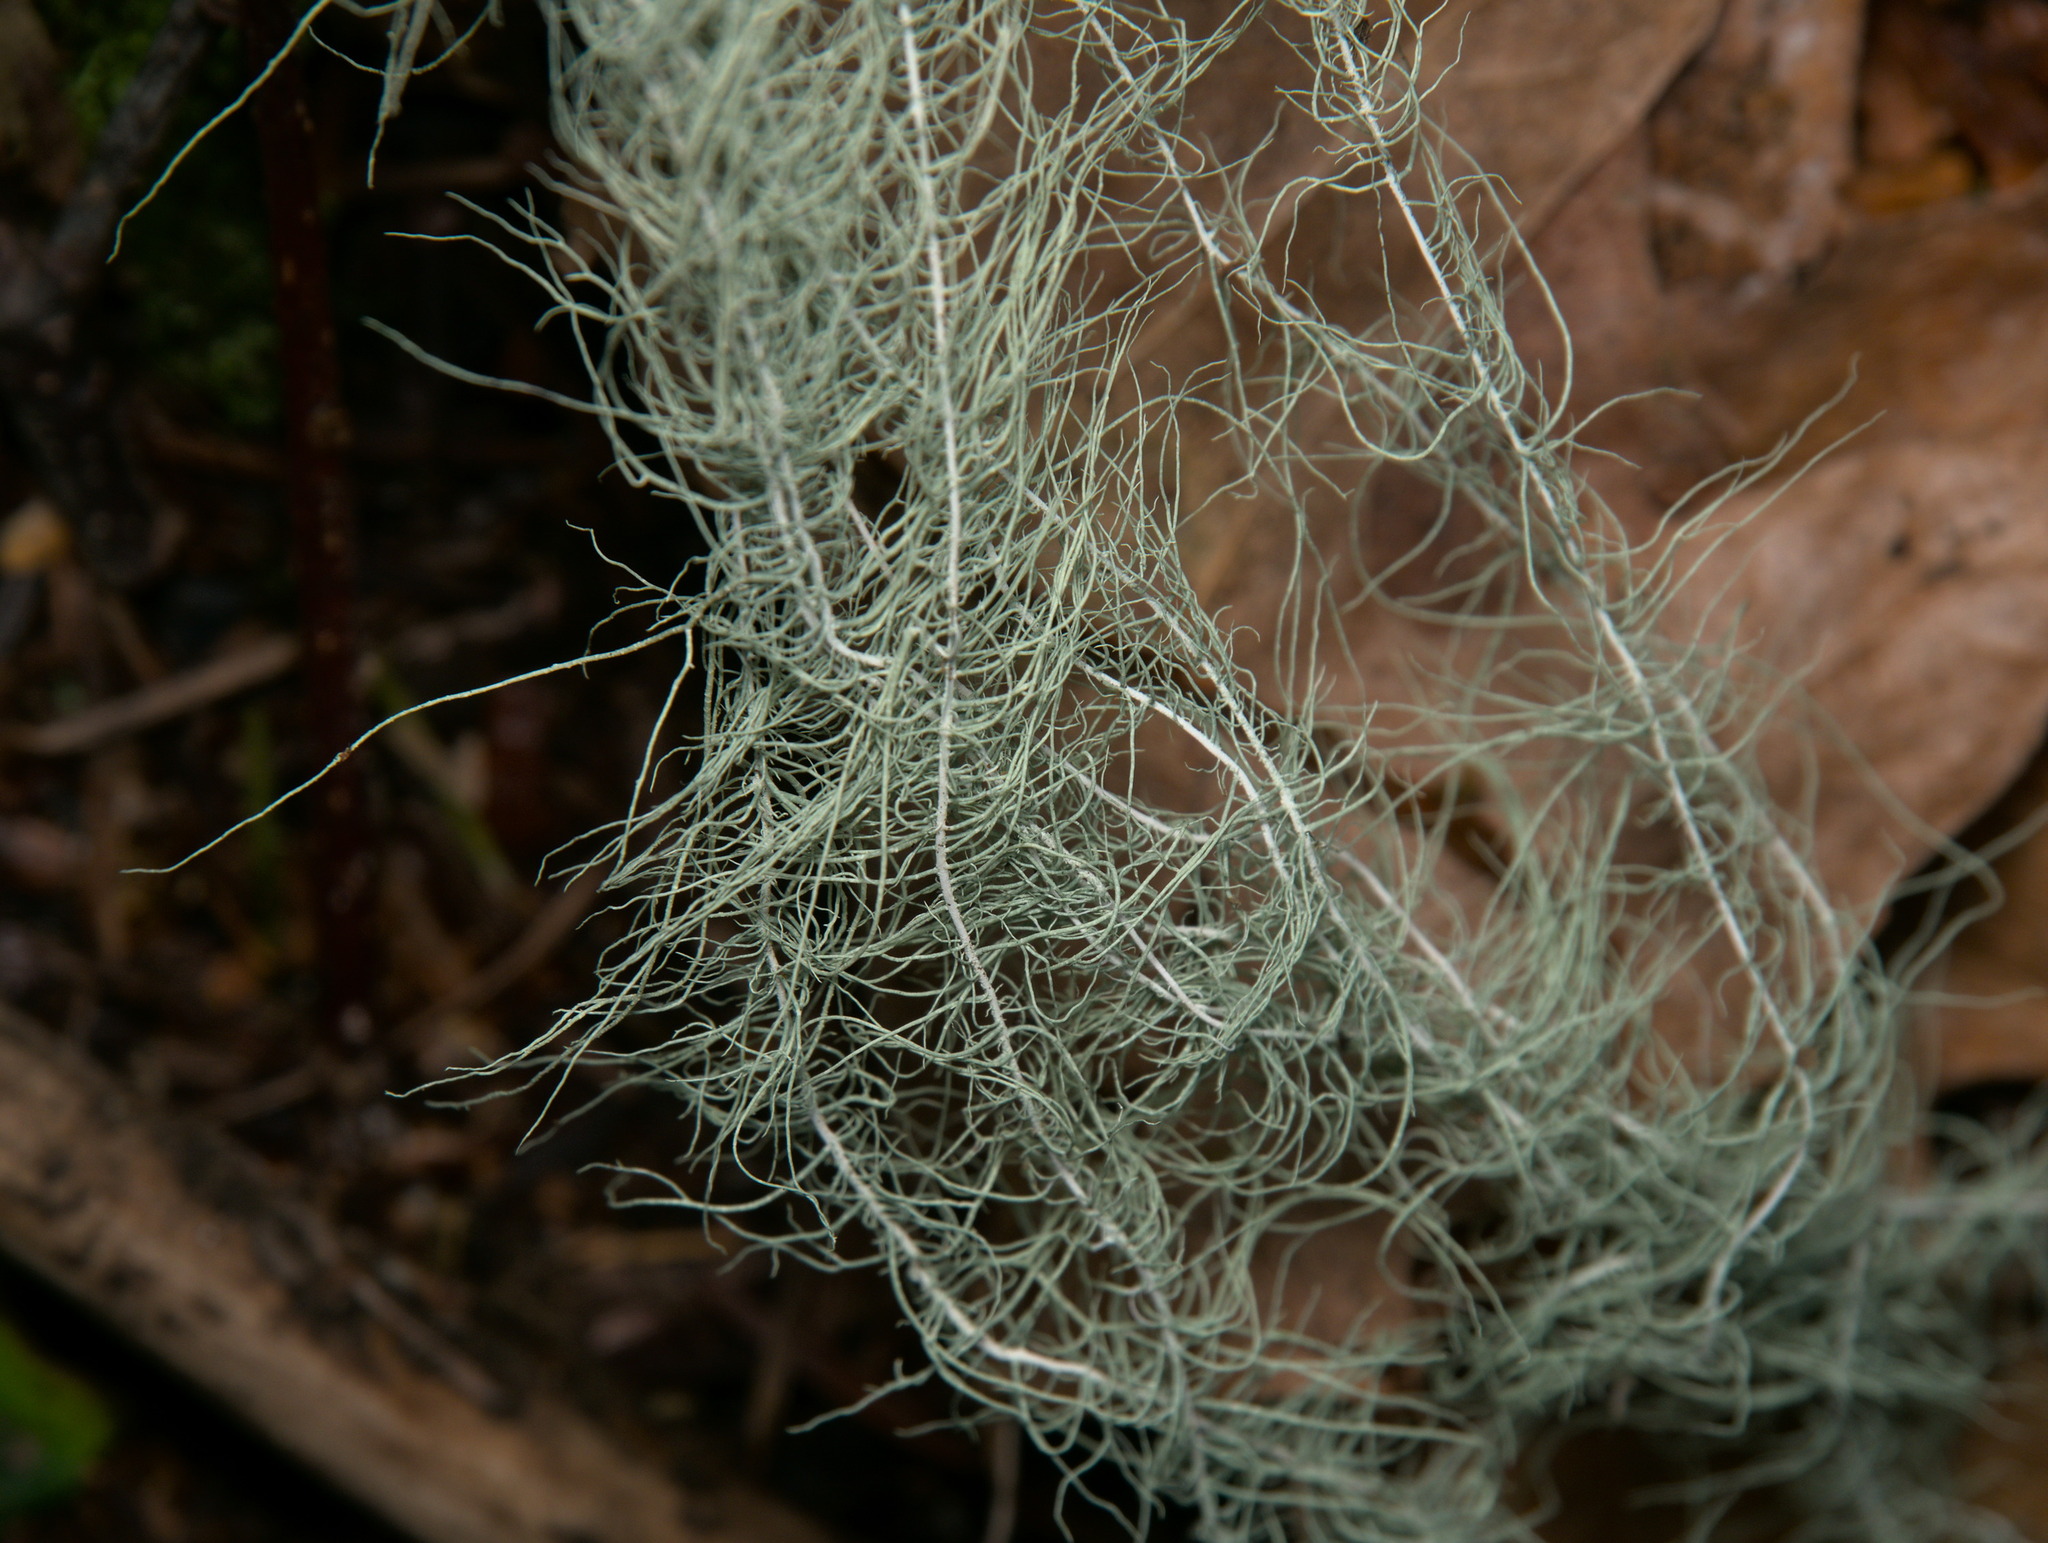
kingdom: Fungi
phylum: Ascomycota
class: Lecanoromycetes
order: Lecanorales
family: Parmeliaceae
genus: Dolichousnea
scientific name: Dolichousnea longissima
